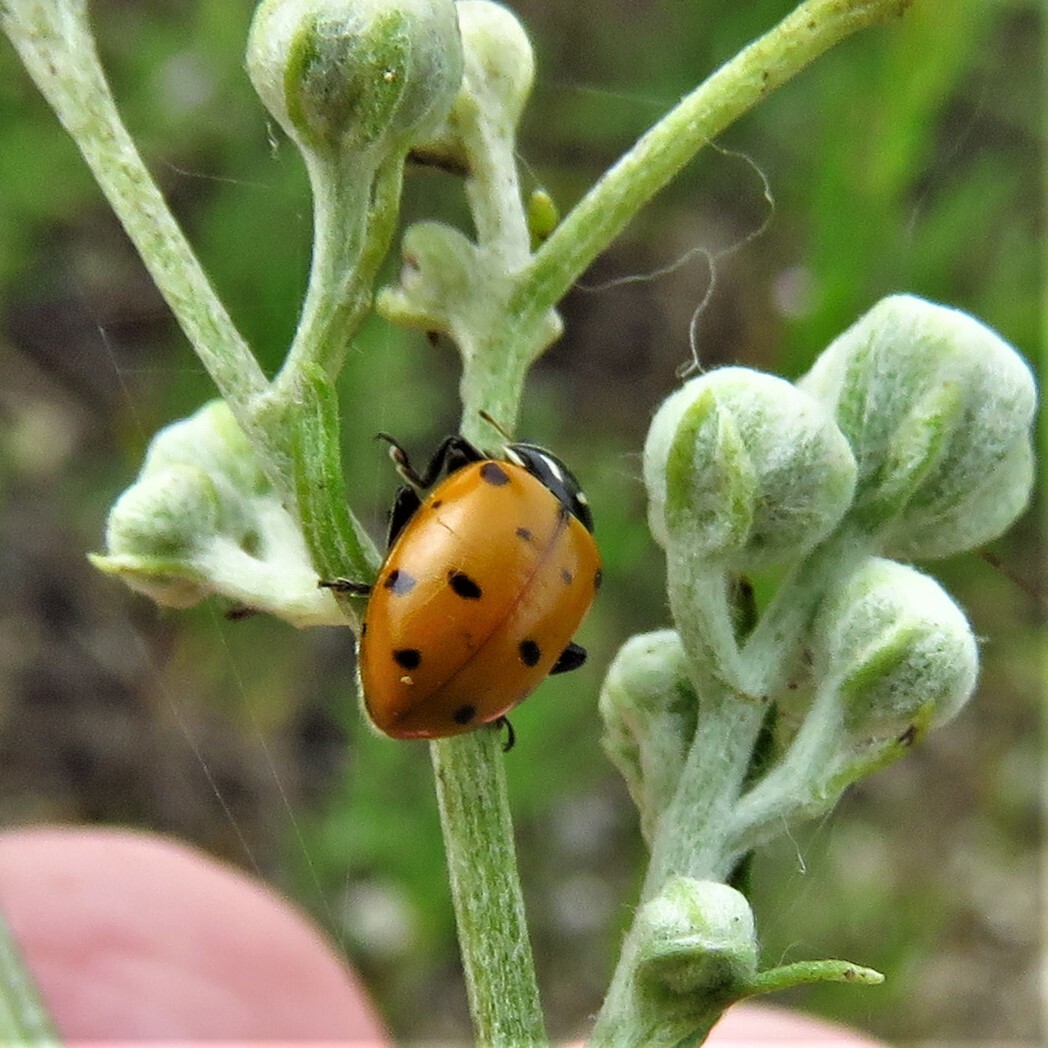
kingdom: Animalia
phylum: Arthropoda
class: Insecta
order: Coleoptera
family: Coccinellidae
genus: Hippodamia
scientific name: Hippodamia convergens
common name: Convergent lady beetle
